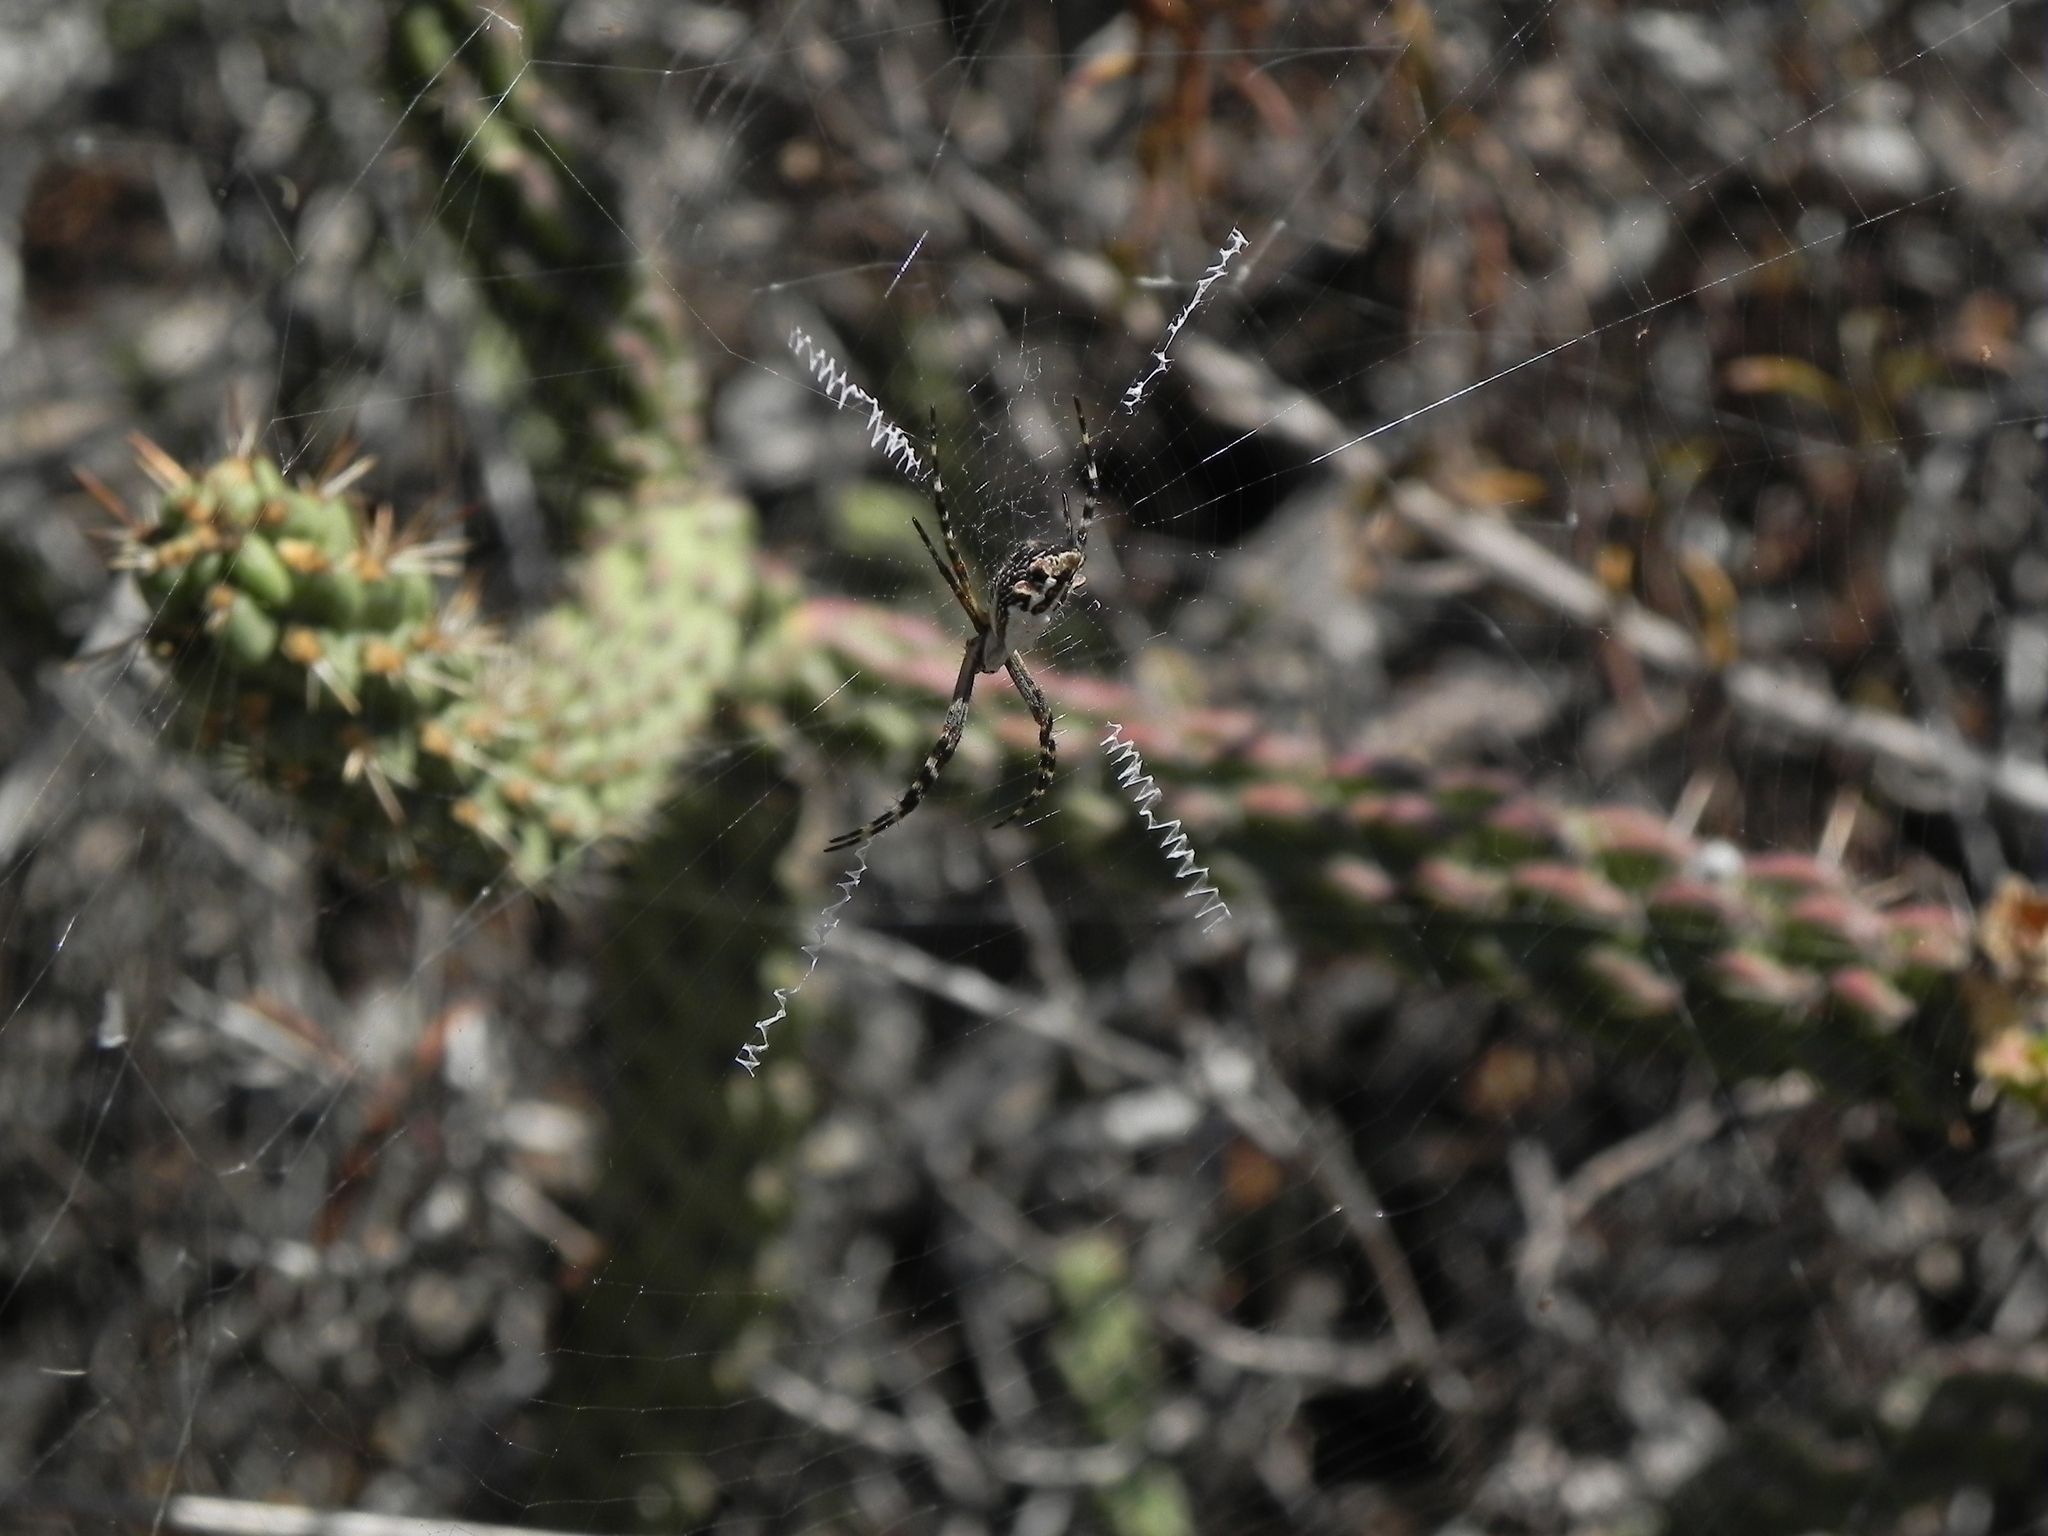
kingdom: Animalia
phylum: Arthropoda
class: Arachnida
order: Araneae
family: Araneidae
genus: Argiope
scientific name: Argiope argentata
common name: Orb weavers
